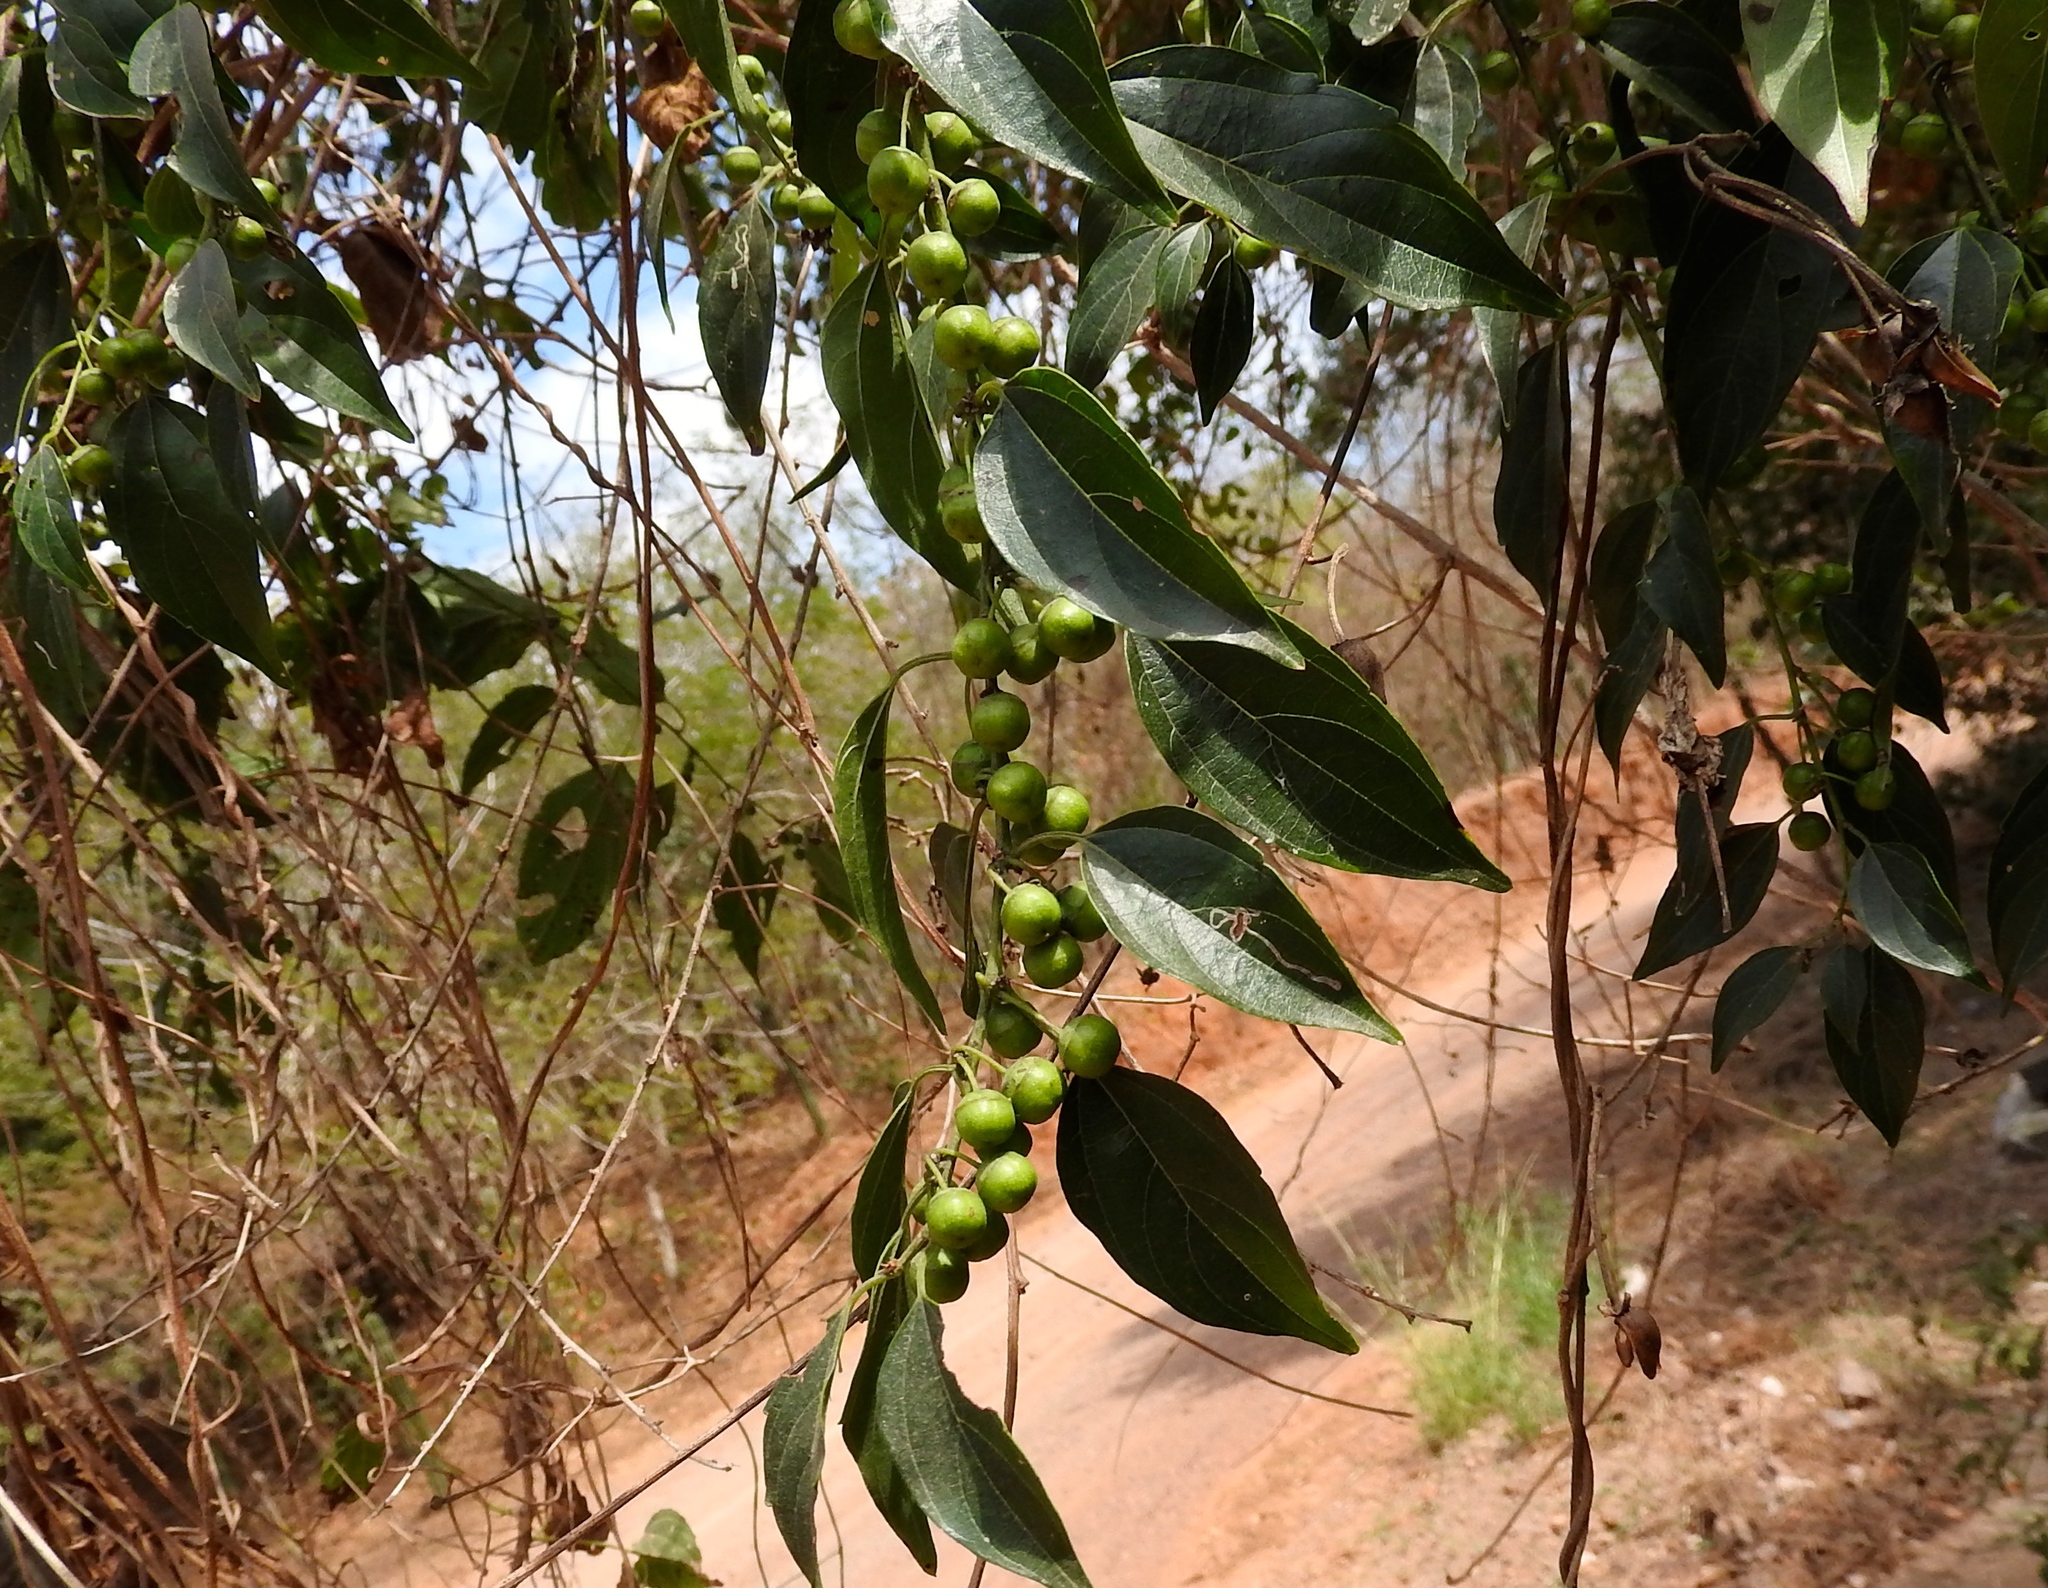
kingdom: Plantae
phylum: Tracheophyta
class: Magnoliopsida
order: Rosales
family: Rhamnaceae
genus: Colubrina
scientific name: Colubrina triflora
